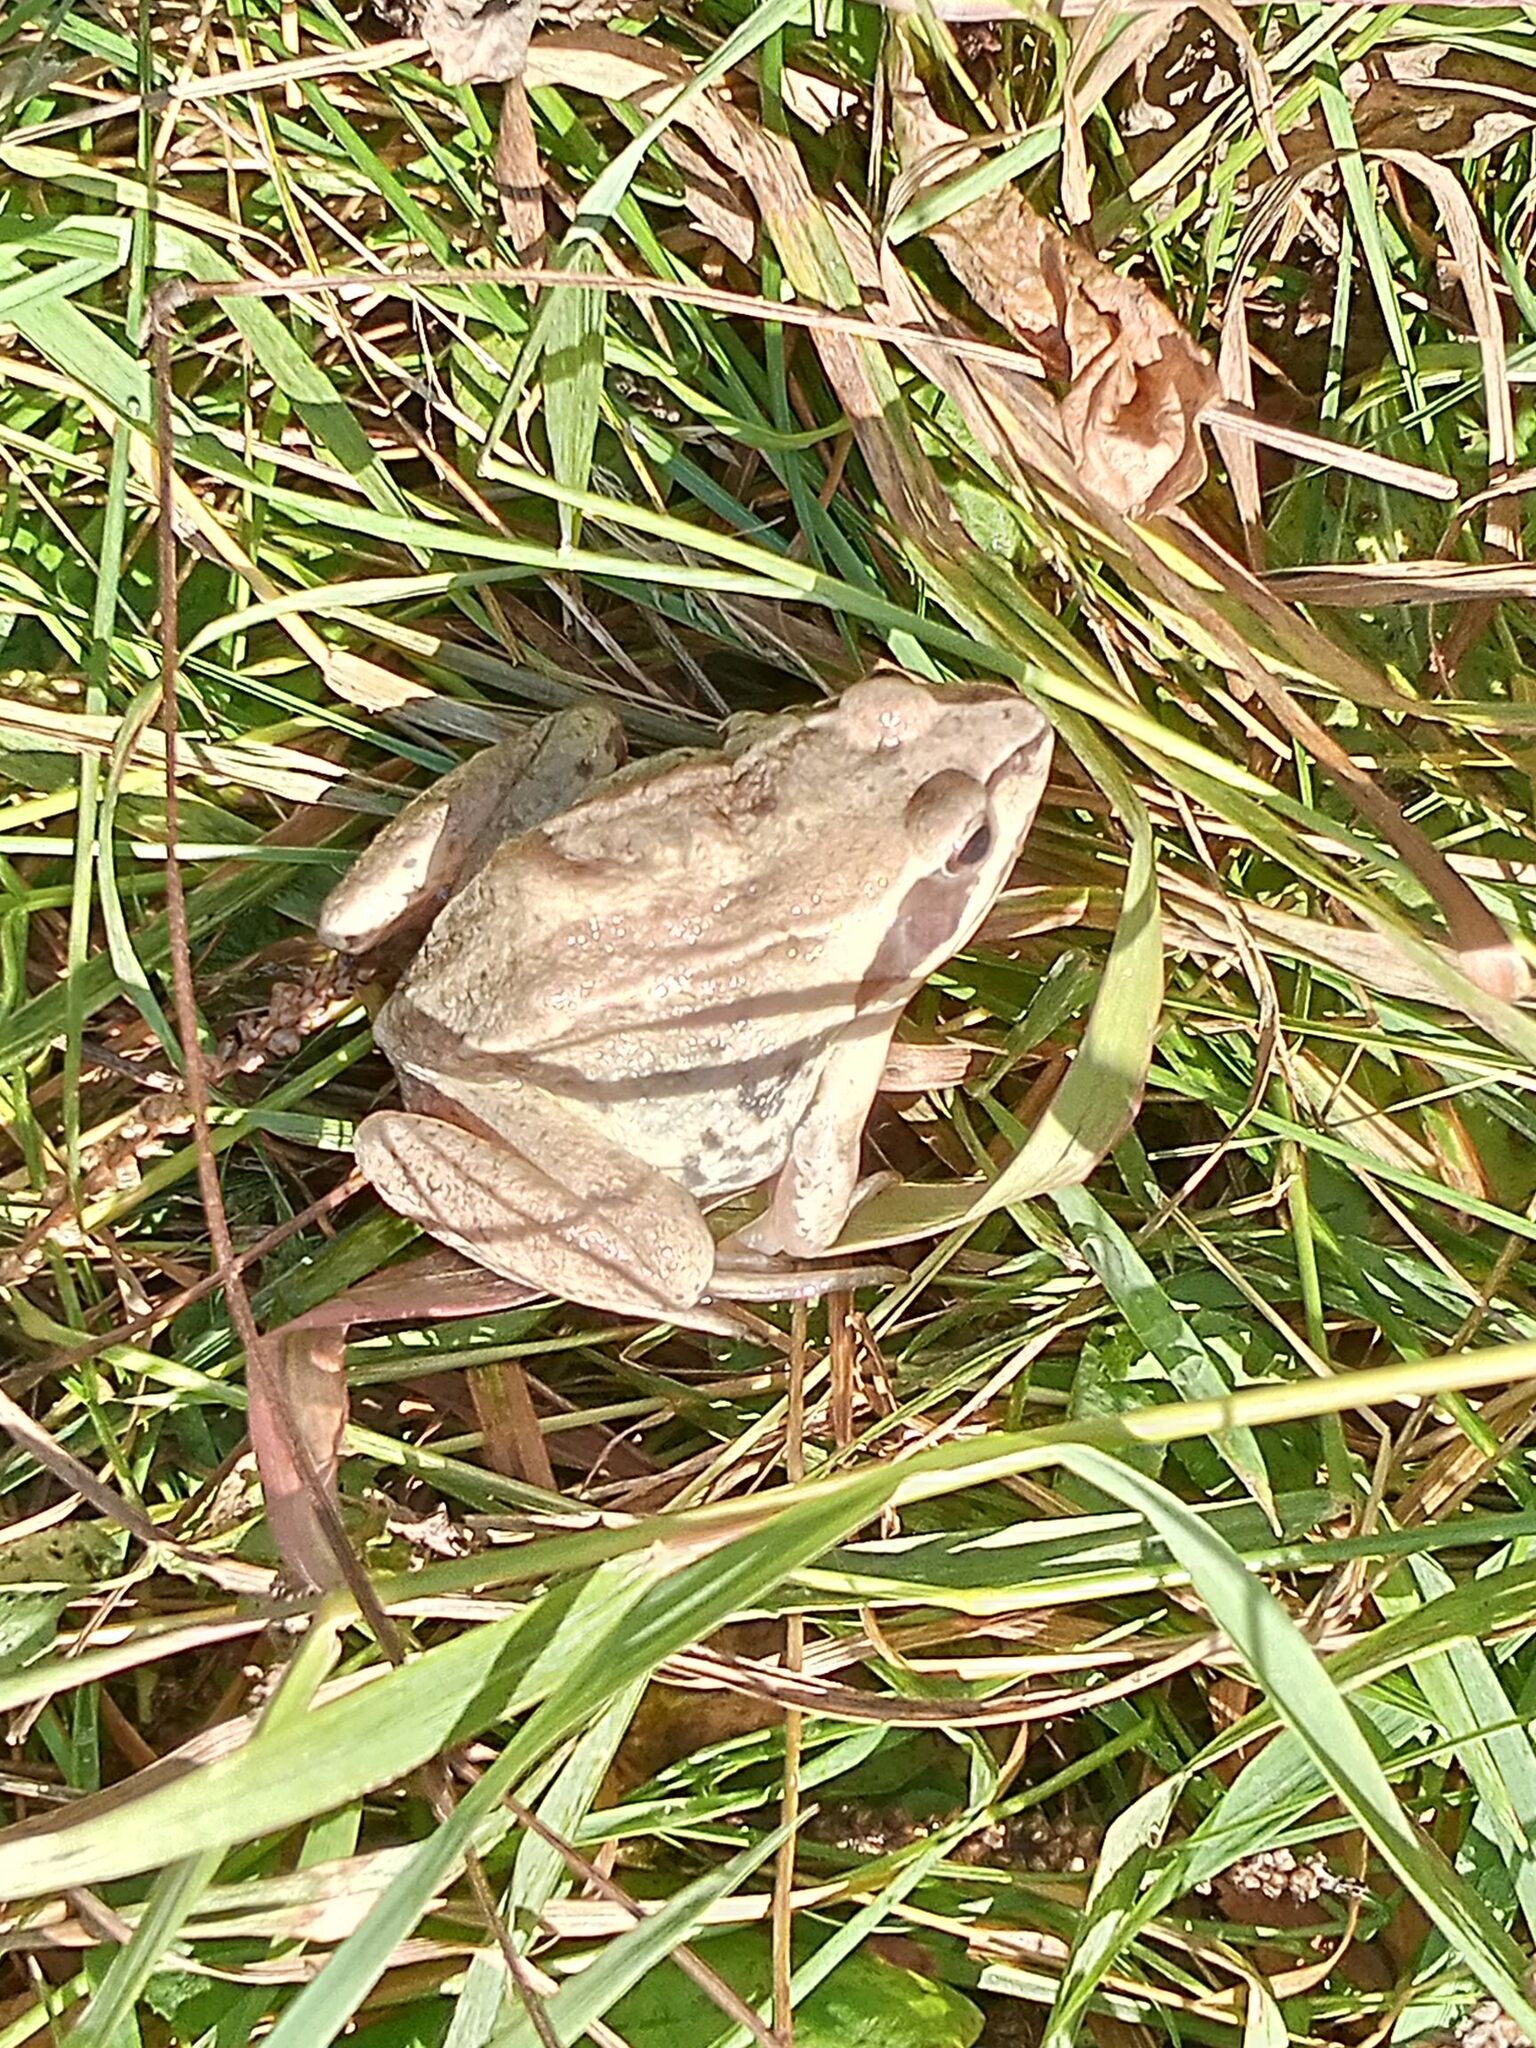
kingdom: Animalia
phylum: Chordata
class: Amphibia
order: Anura
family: Ranidae
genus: Rana
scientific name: Rana arvalis
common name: Moor frog
